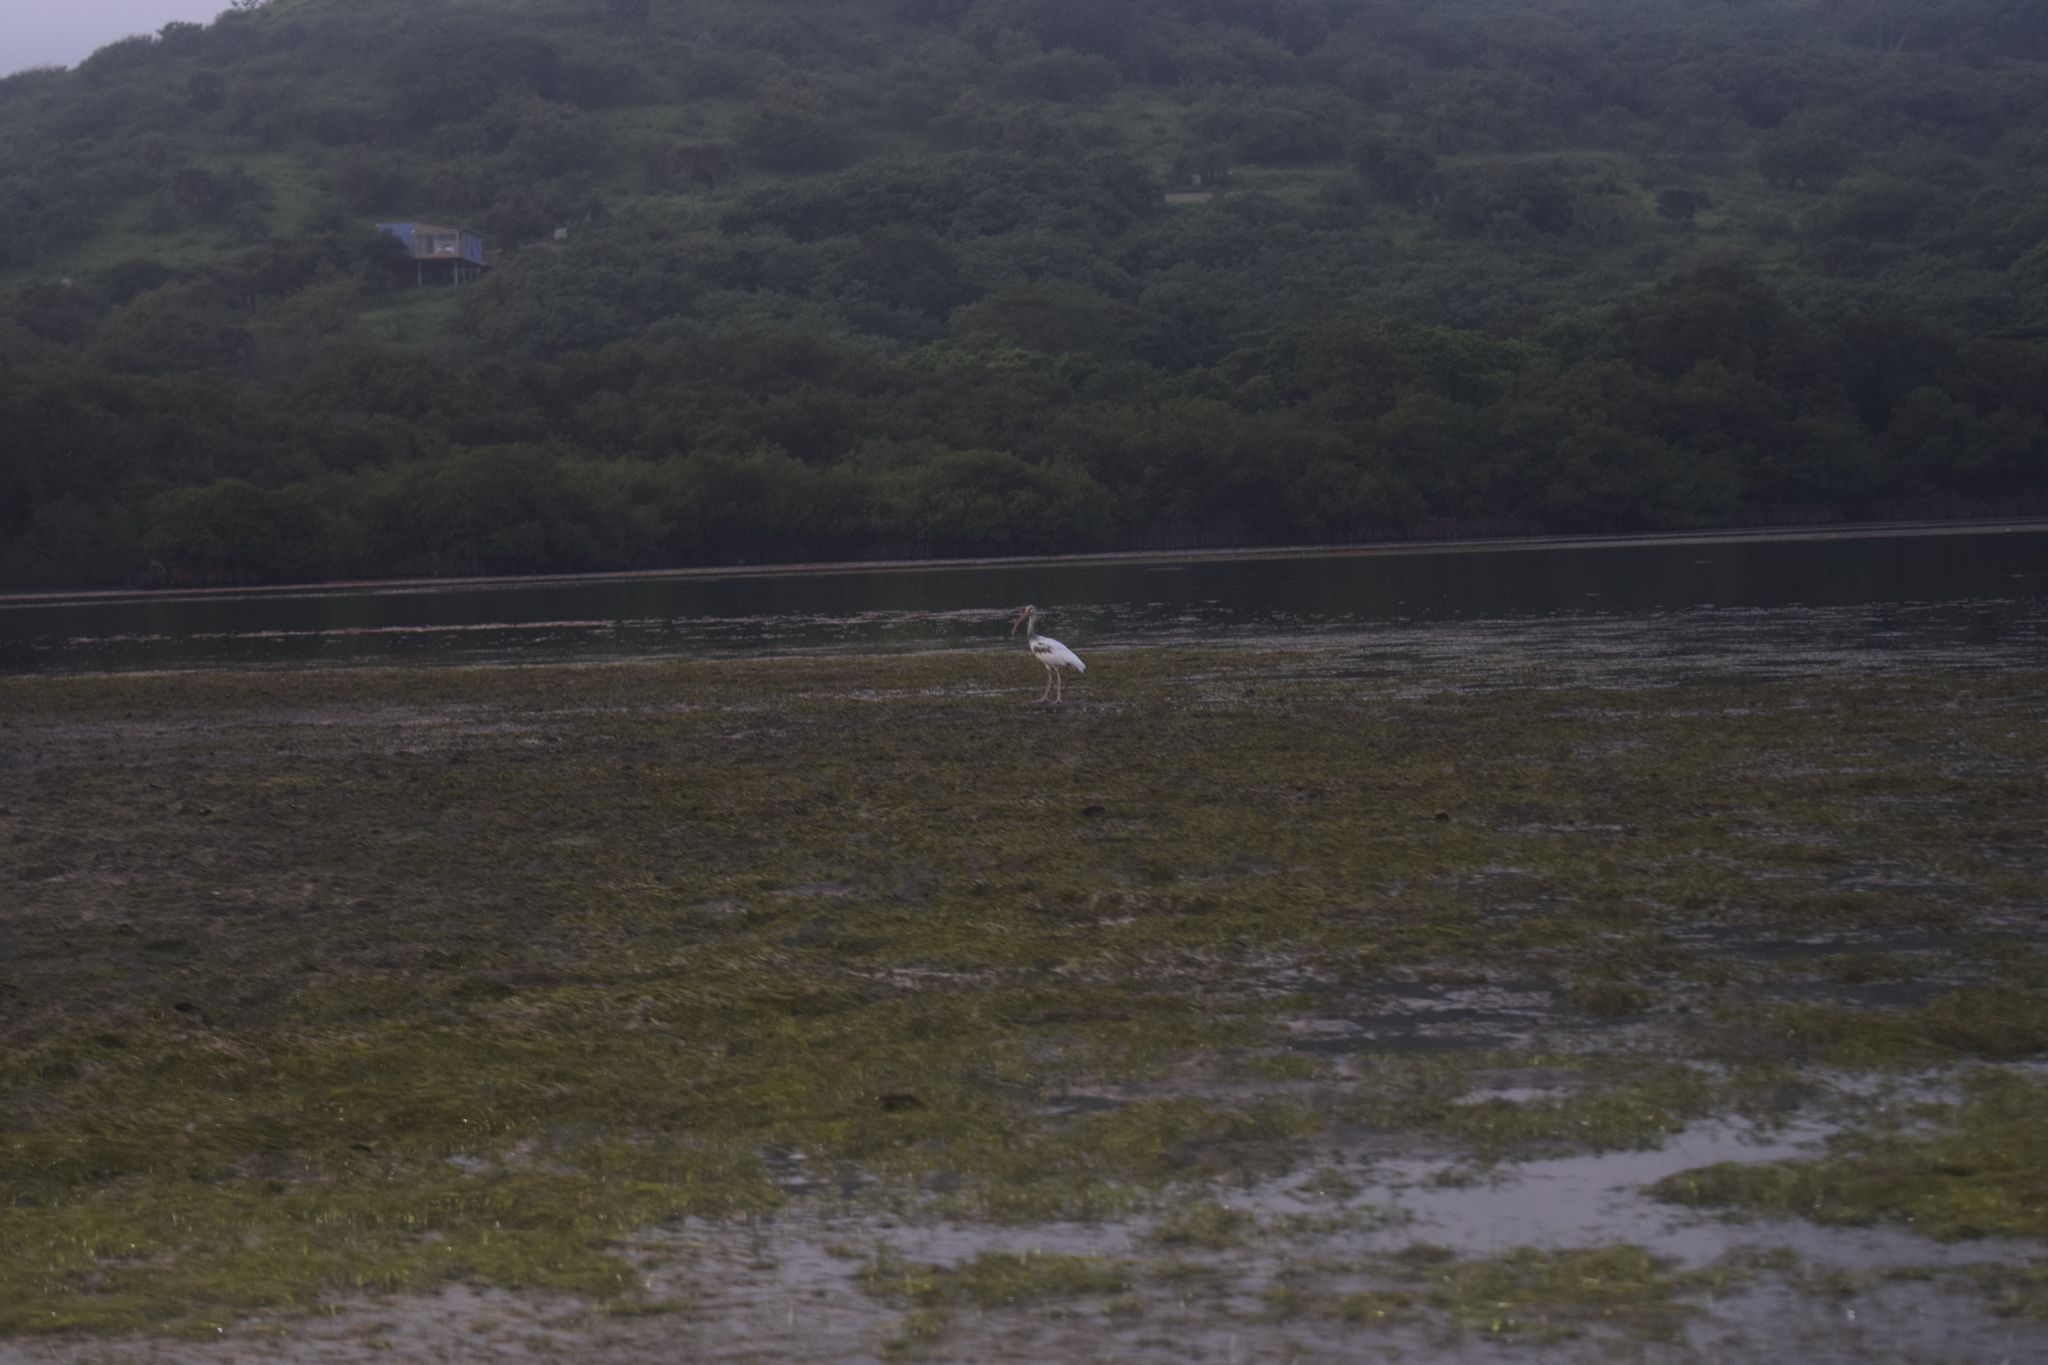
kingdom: Animalia
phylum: Chordata
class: Aves
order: Pelecaniformes
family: Threskiornithidae
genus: Eudocimus
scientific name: Eudocimus albus
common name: White ibis
